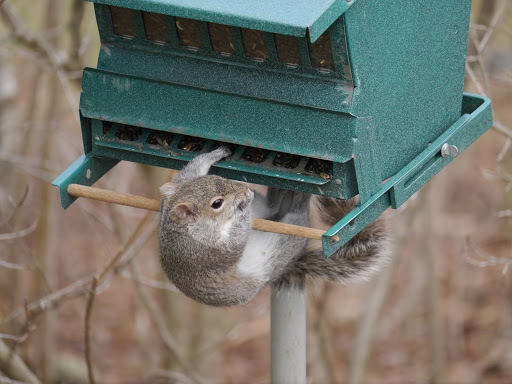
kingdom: Animalia
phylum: Chordata
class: Mammalia
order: Rodentia
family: Sciuridae
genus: Sciurus
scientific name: Sciurus carolinensis
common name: Eastern gray squirrel
